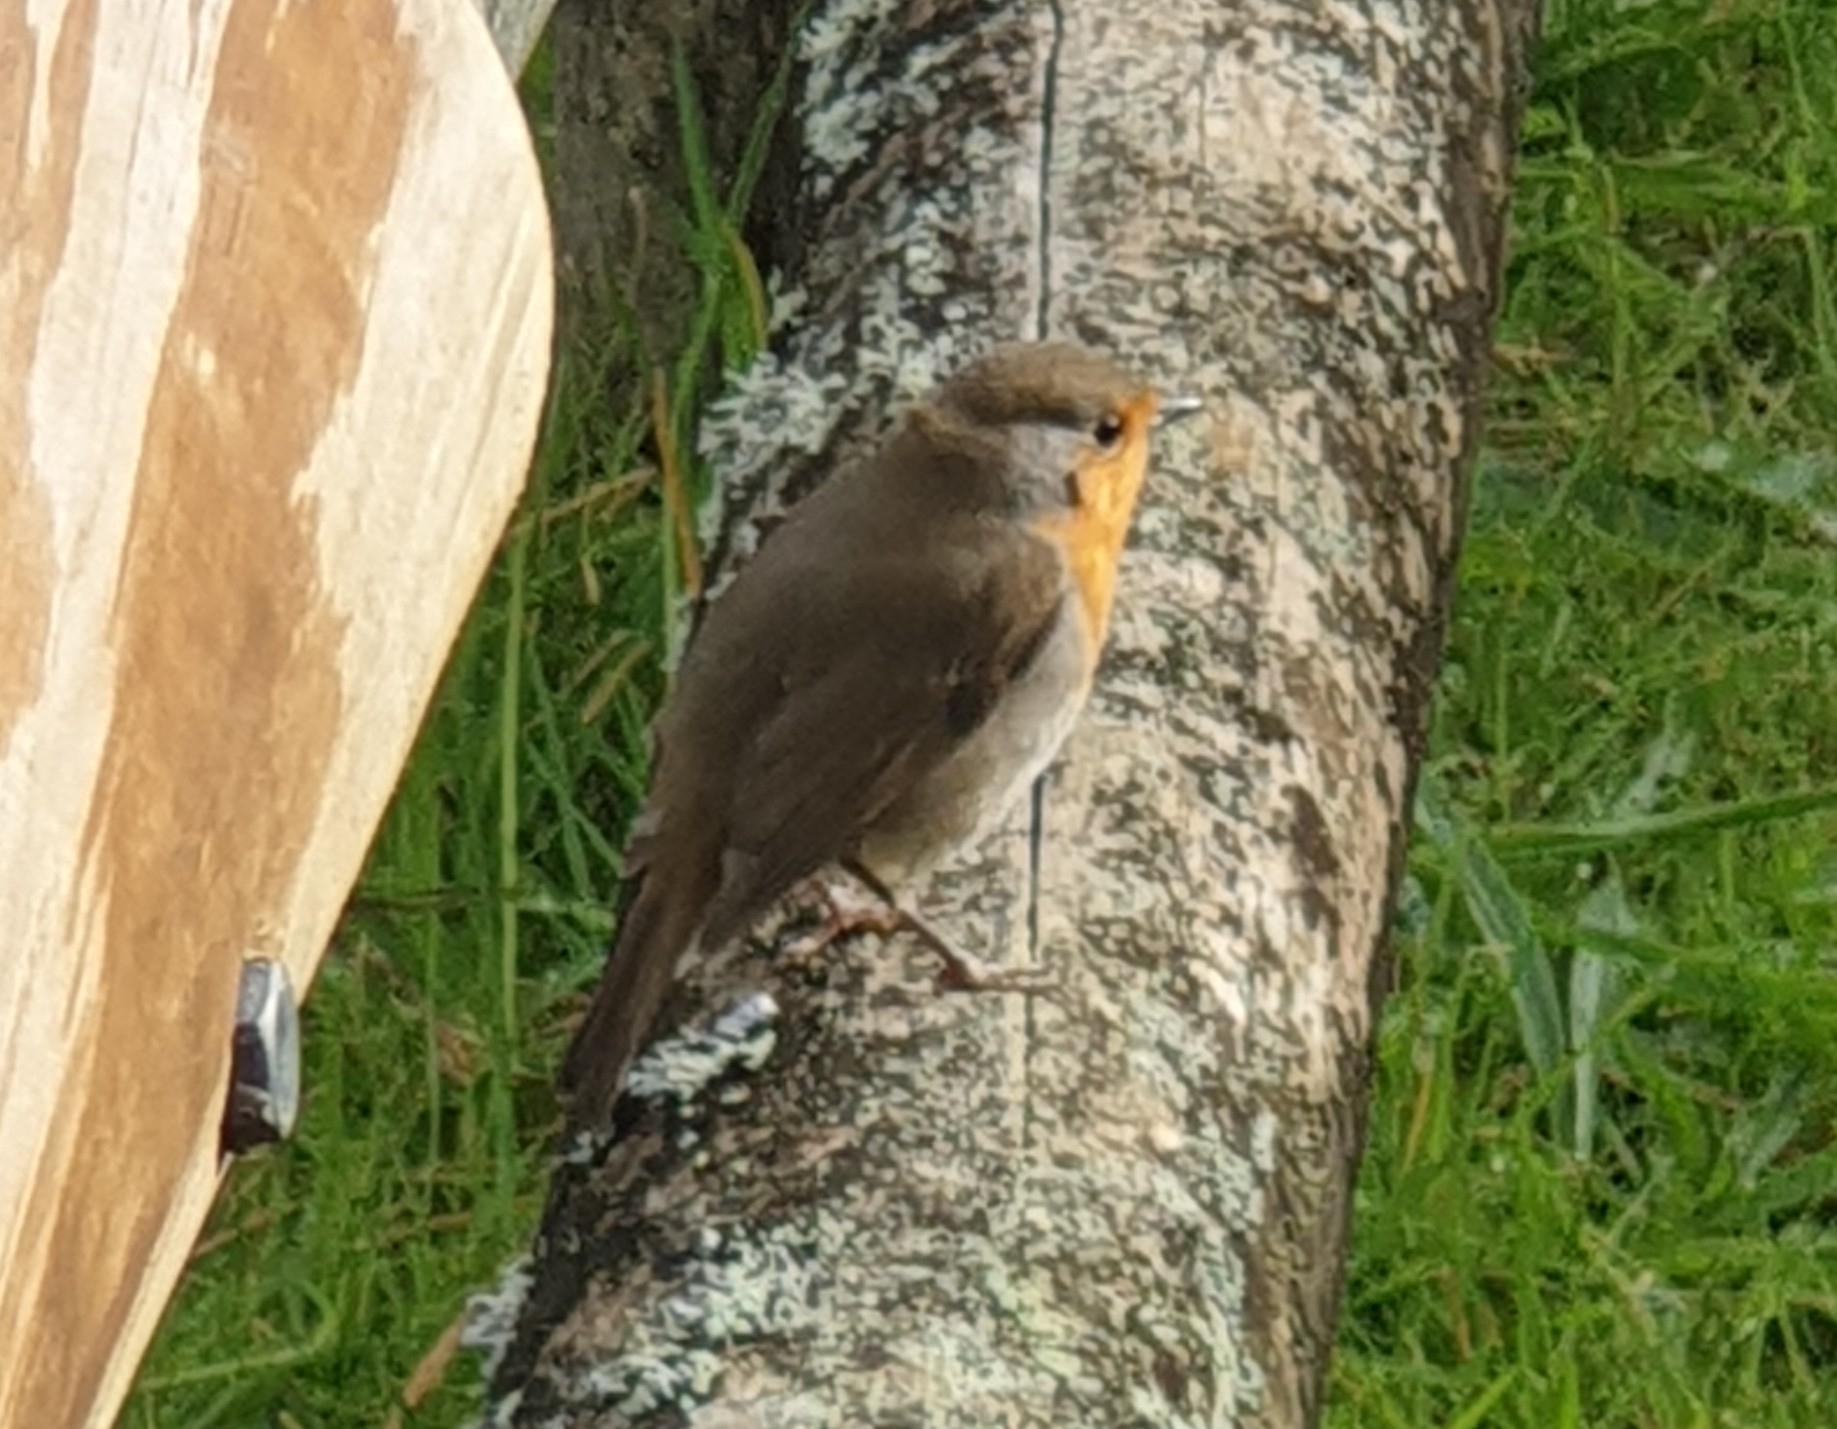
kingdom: Animalia
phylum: Chordata
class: Aves
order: Passeriformes
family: Muscicapidae
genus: Erithacus
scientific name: Erithacus rubecula
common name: European robin
